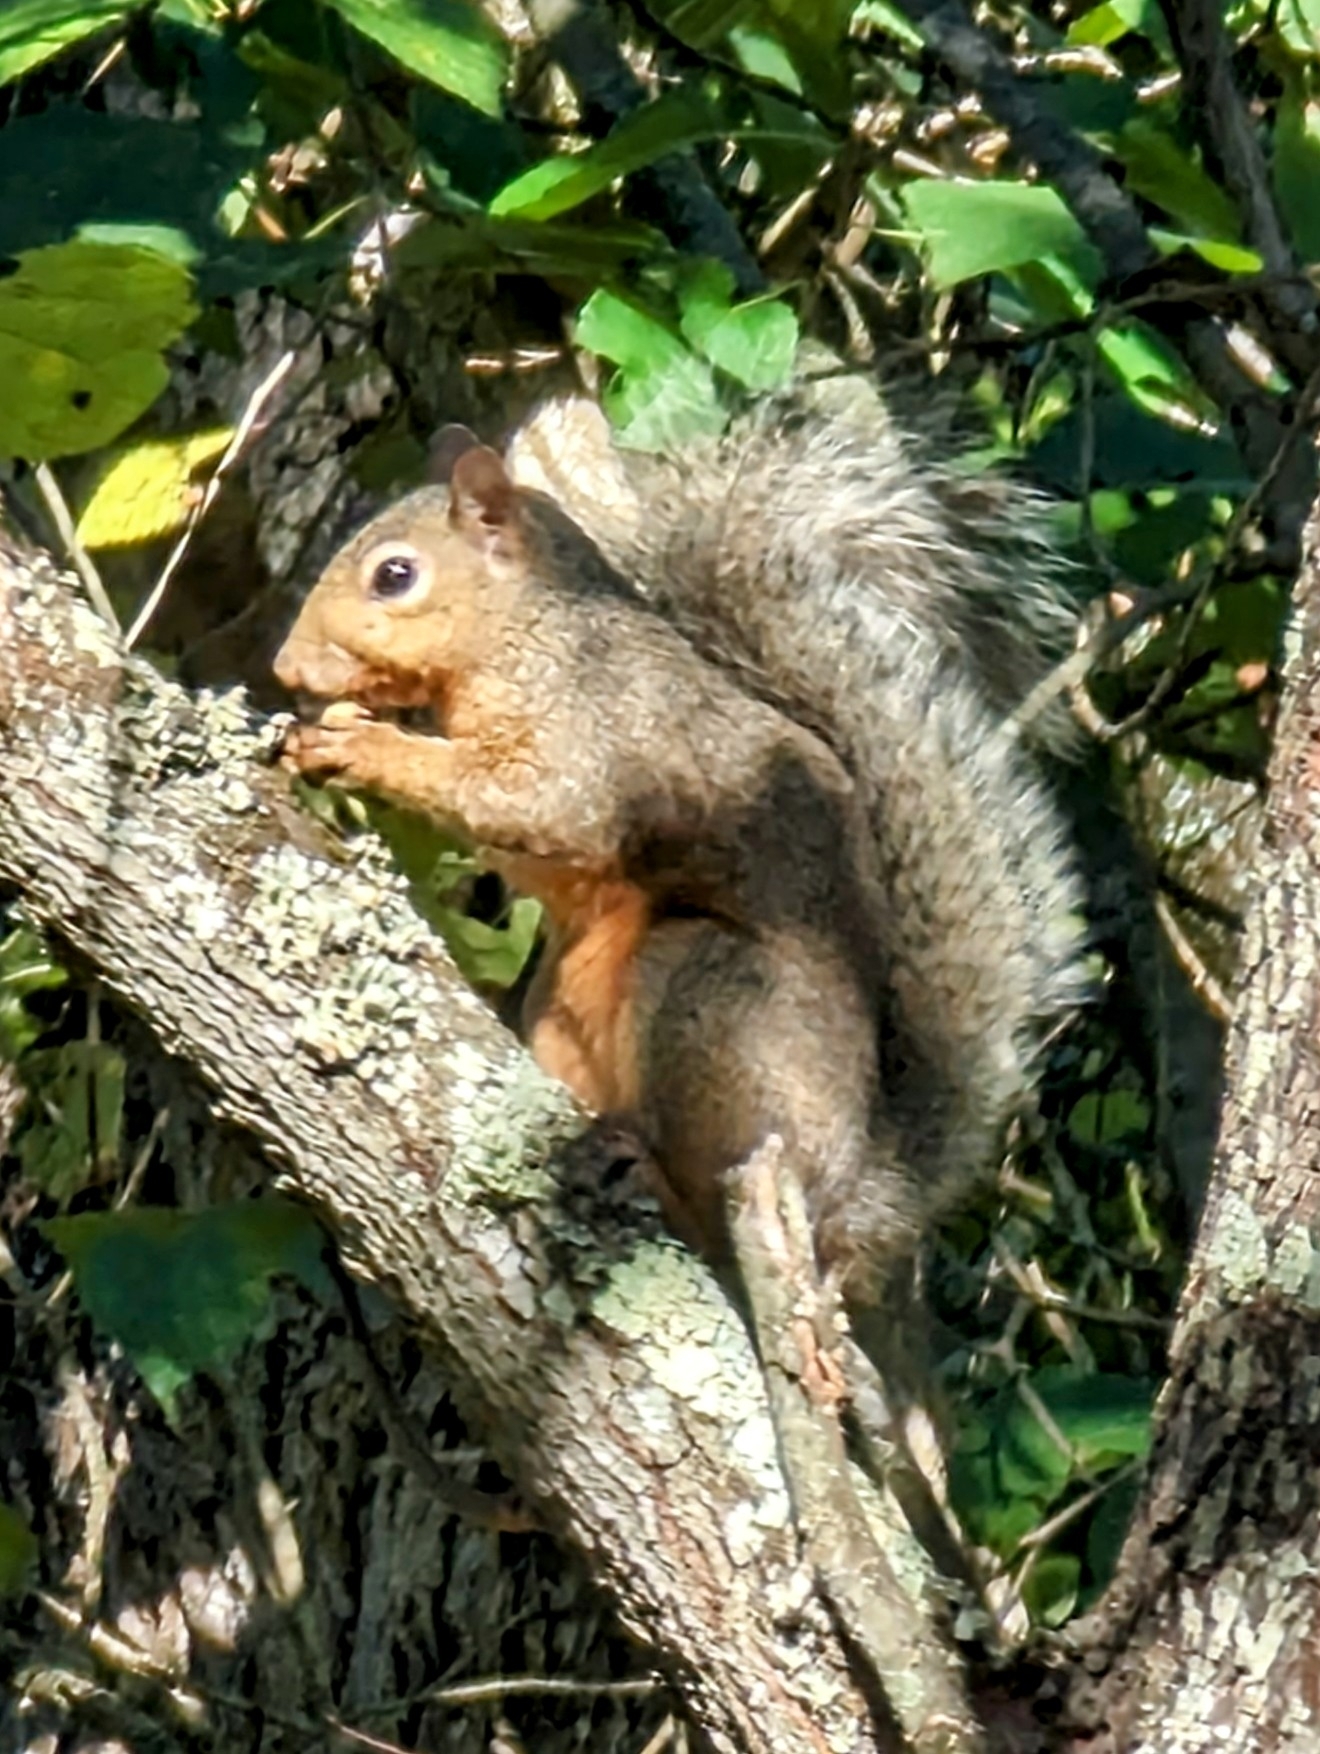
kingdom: Animalia
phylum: Chordata
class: Mammalia
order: Rodentia
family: Sciuridae
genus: Sciurus
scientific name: Sciurus niger
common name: Fox squirrel
